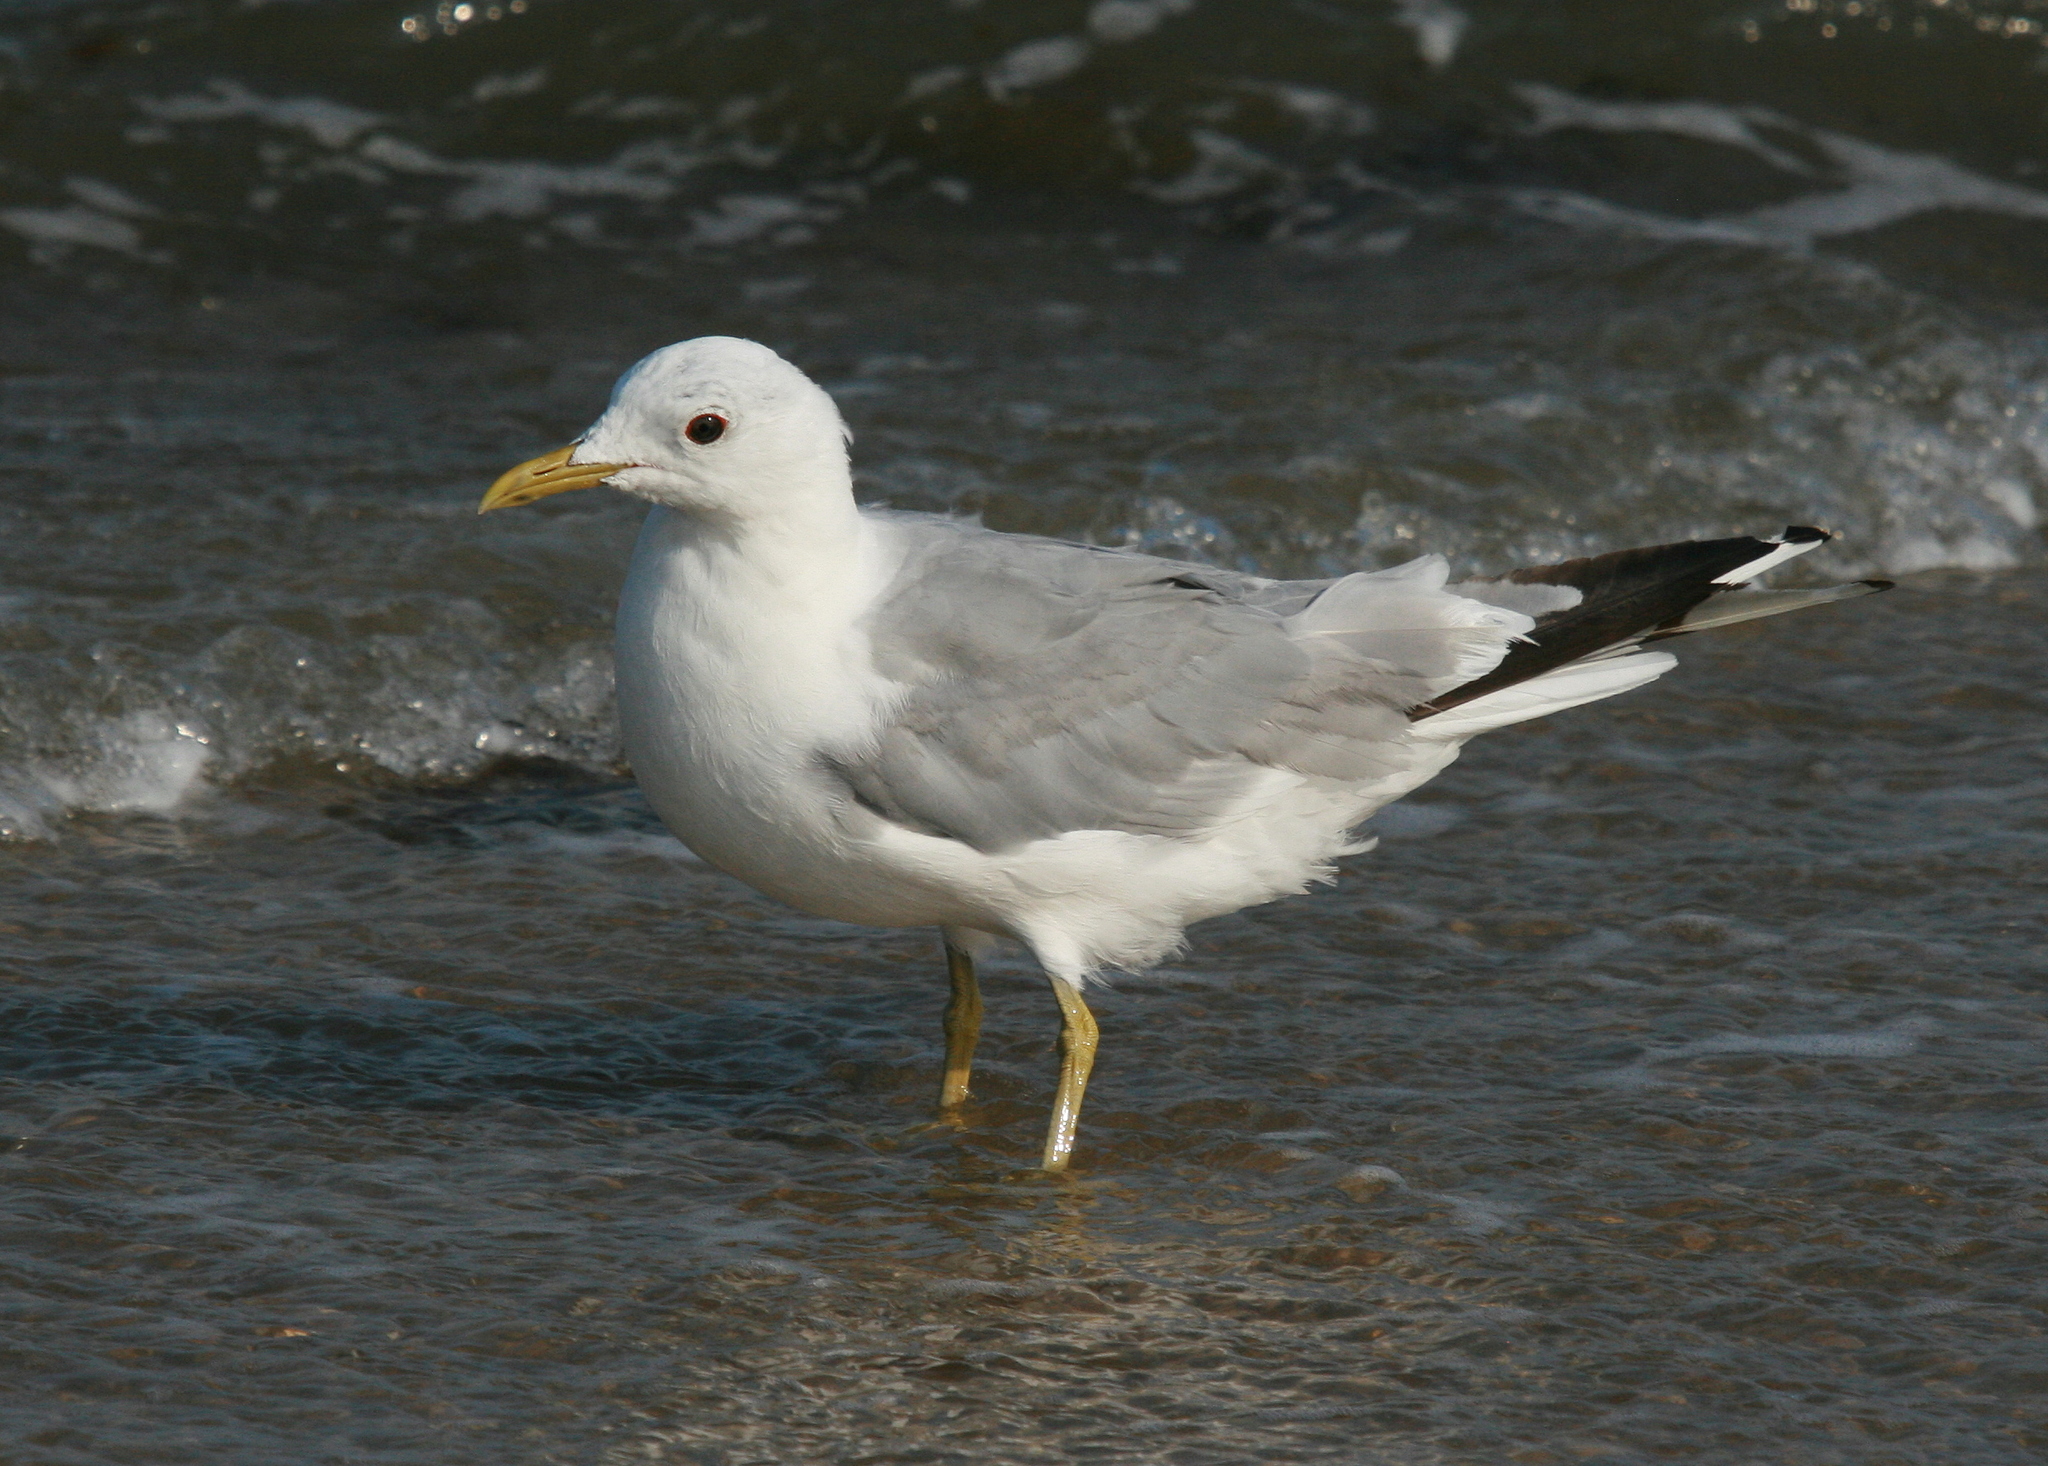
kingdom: Animalia
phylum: Chordata
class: Aves
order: Charadriiformes
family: Laridae
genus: Larus
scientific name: Larus canus
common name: Mew gull
